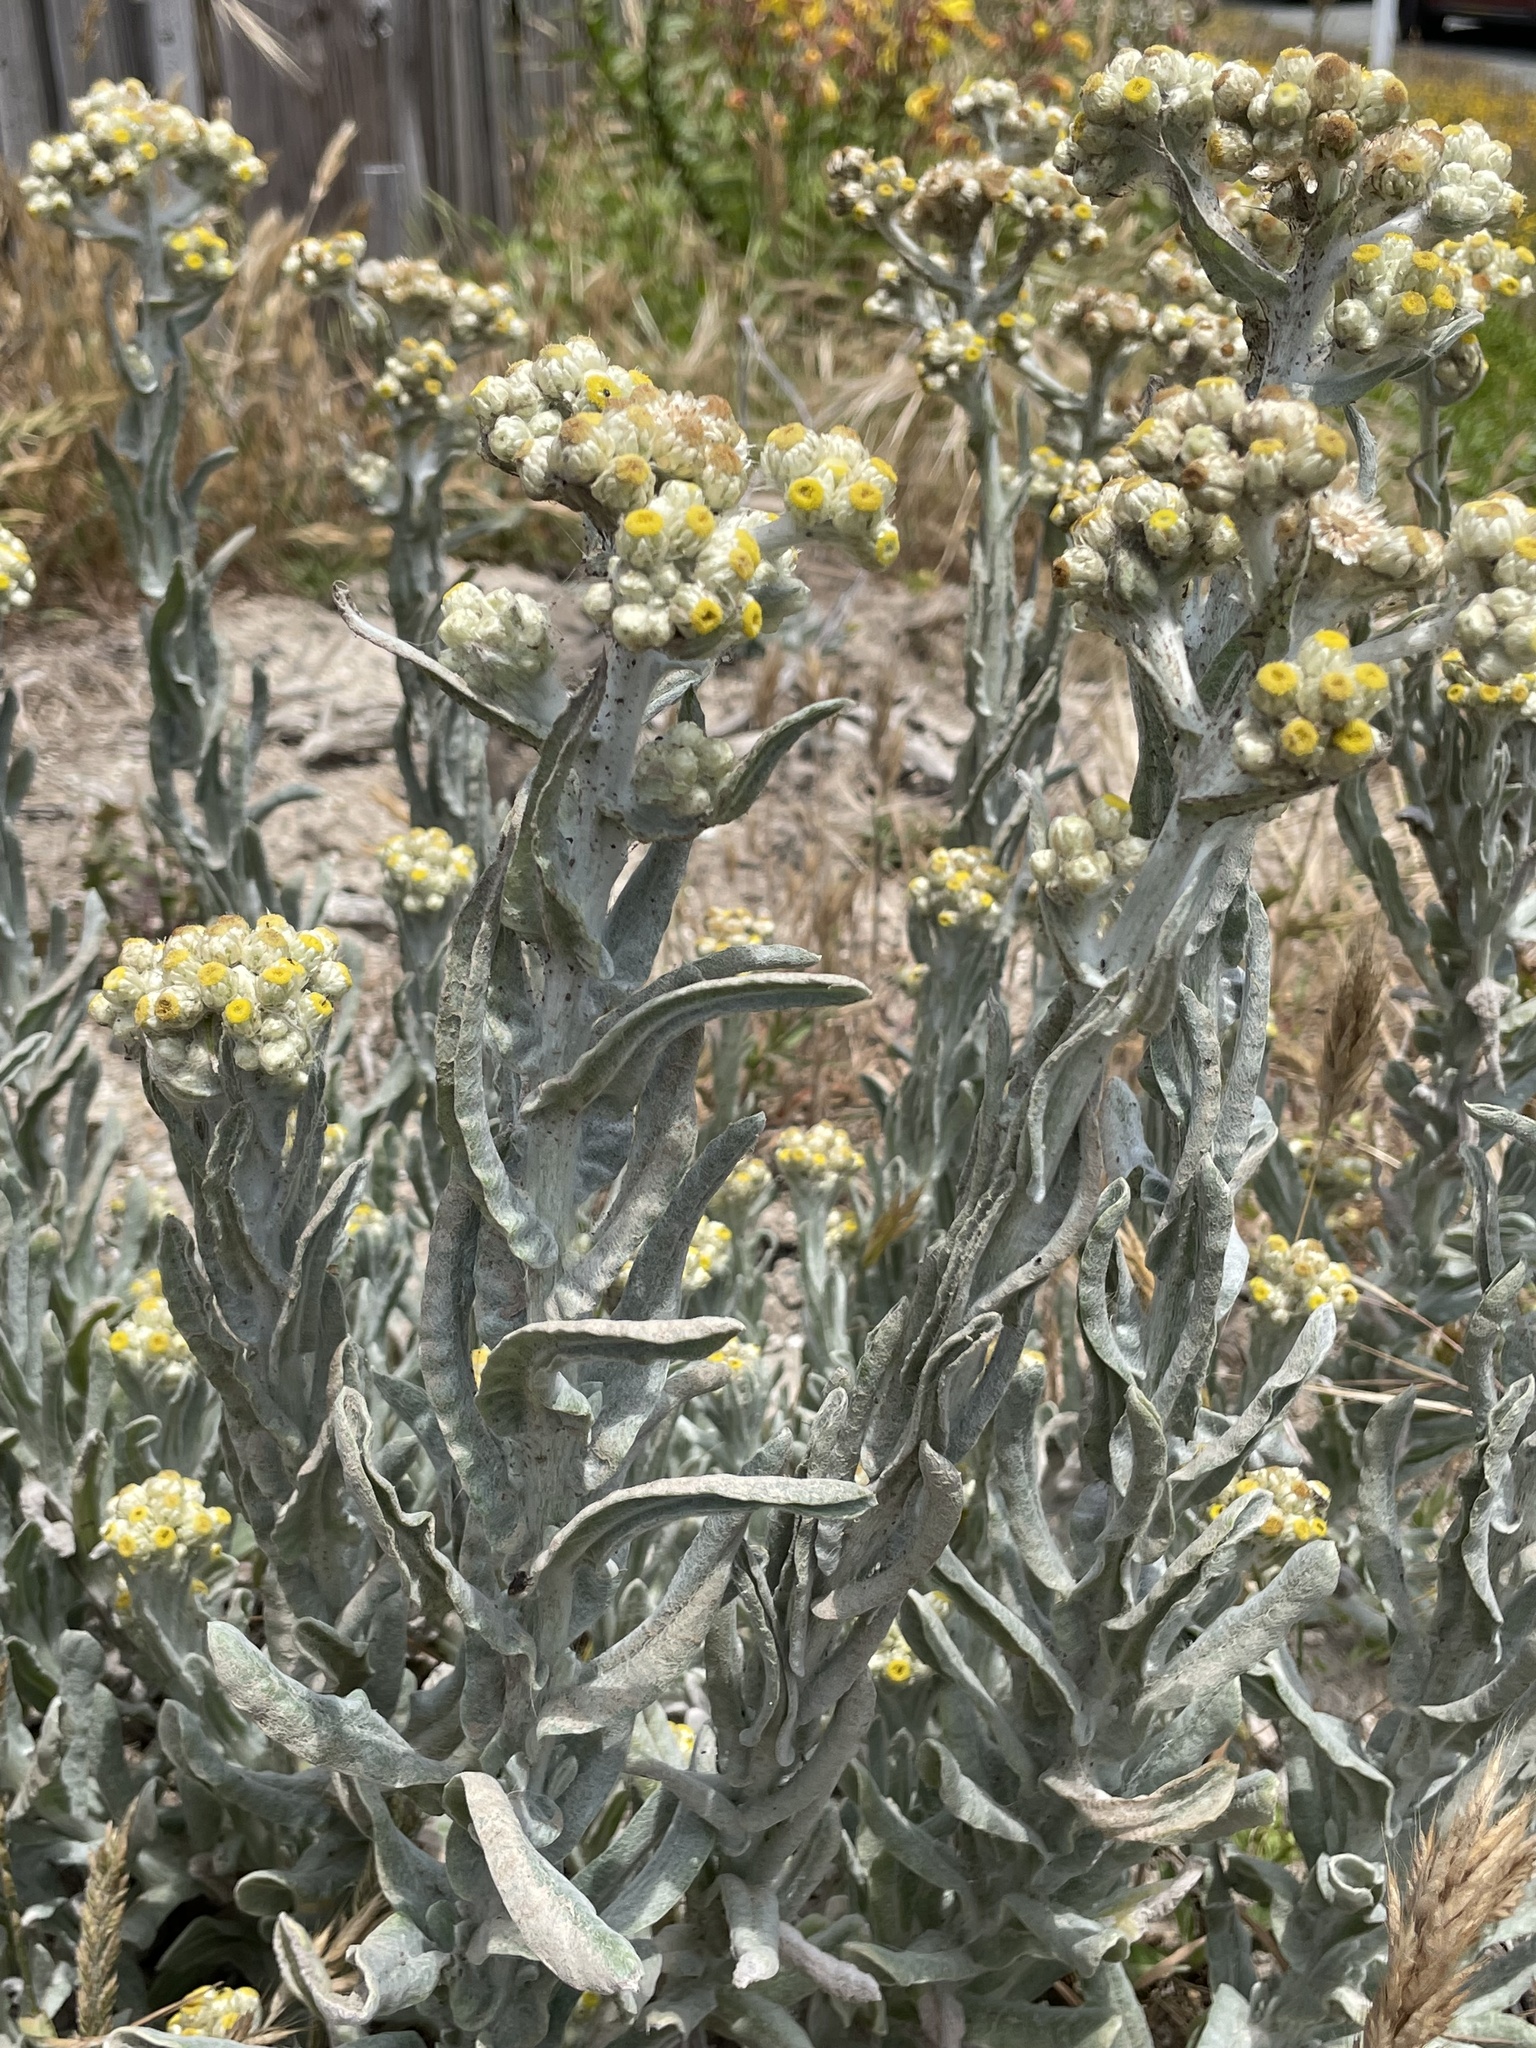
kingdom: Plantae
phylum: Tracheophyta
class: Magnoliopsida
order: Asterales
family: Asteraceae
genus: Pseudognaphalium
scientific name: Pseudognaphalium stramineum
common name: Cotton-batting-plant
